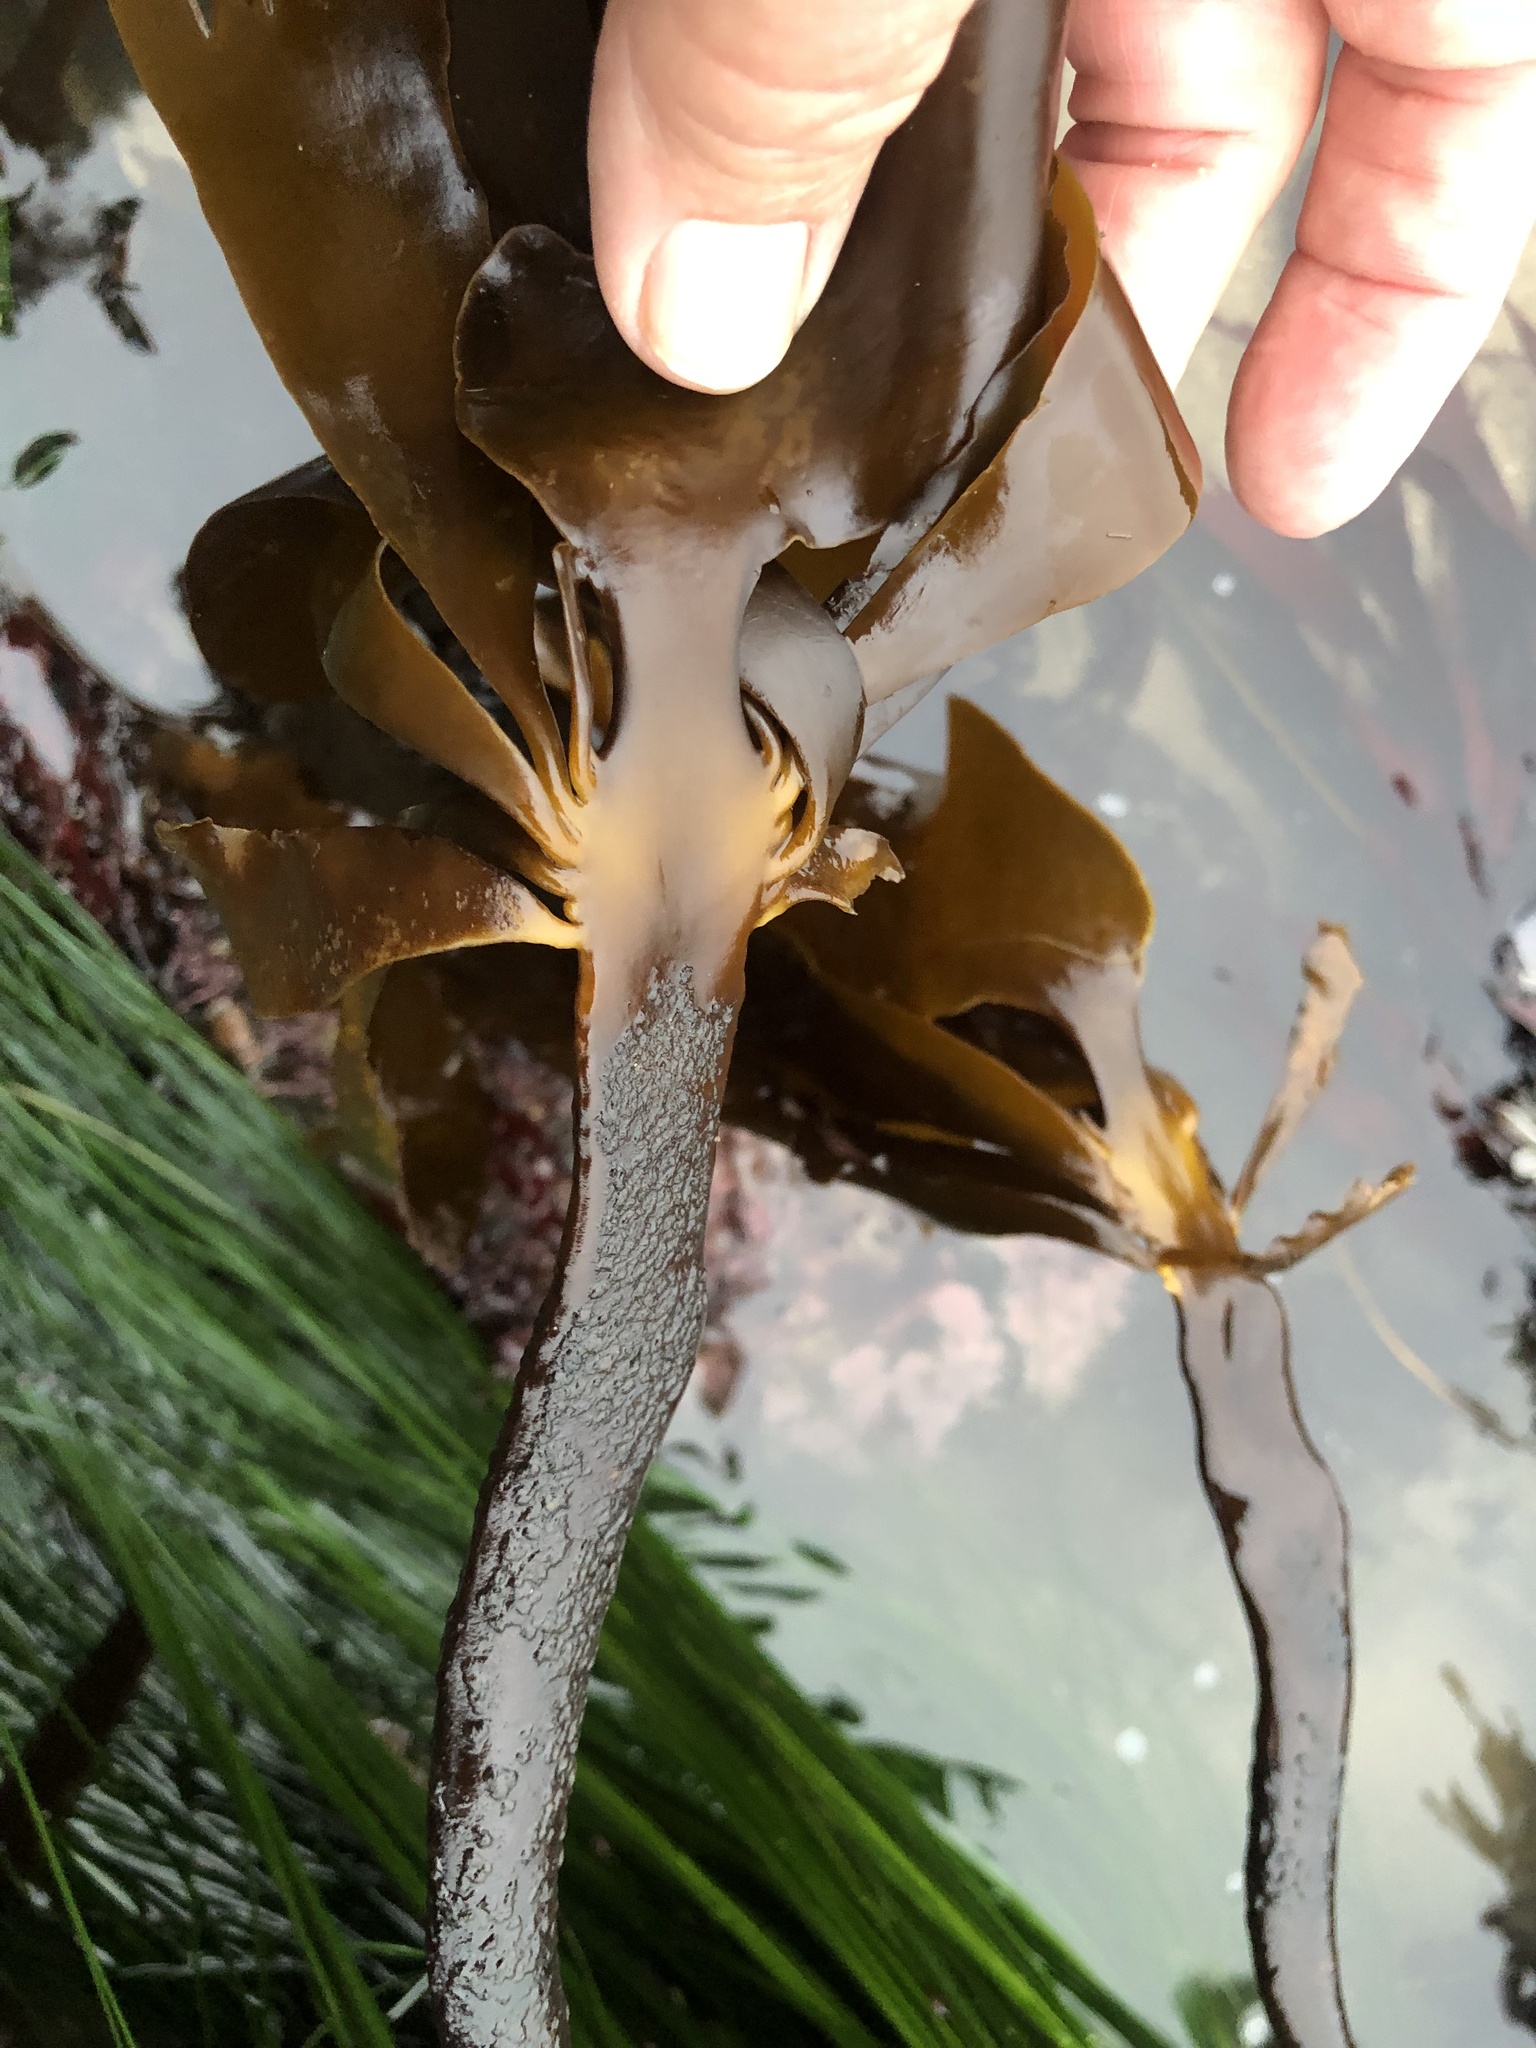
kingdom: Chromista
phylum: Ochrophyta
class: Phaeophyceae
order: Laminariales
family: Alariaceae
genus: Pterygophora
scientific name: Pterygophora californica
